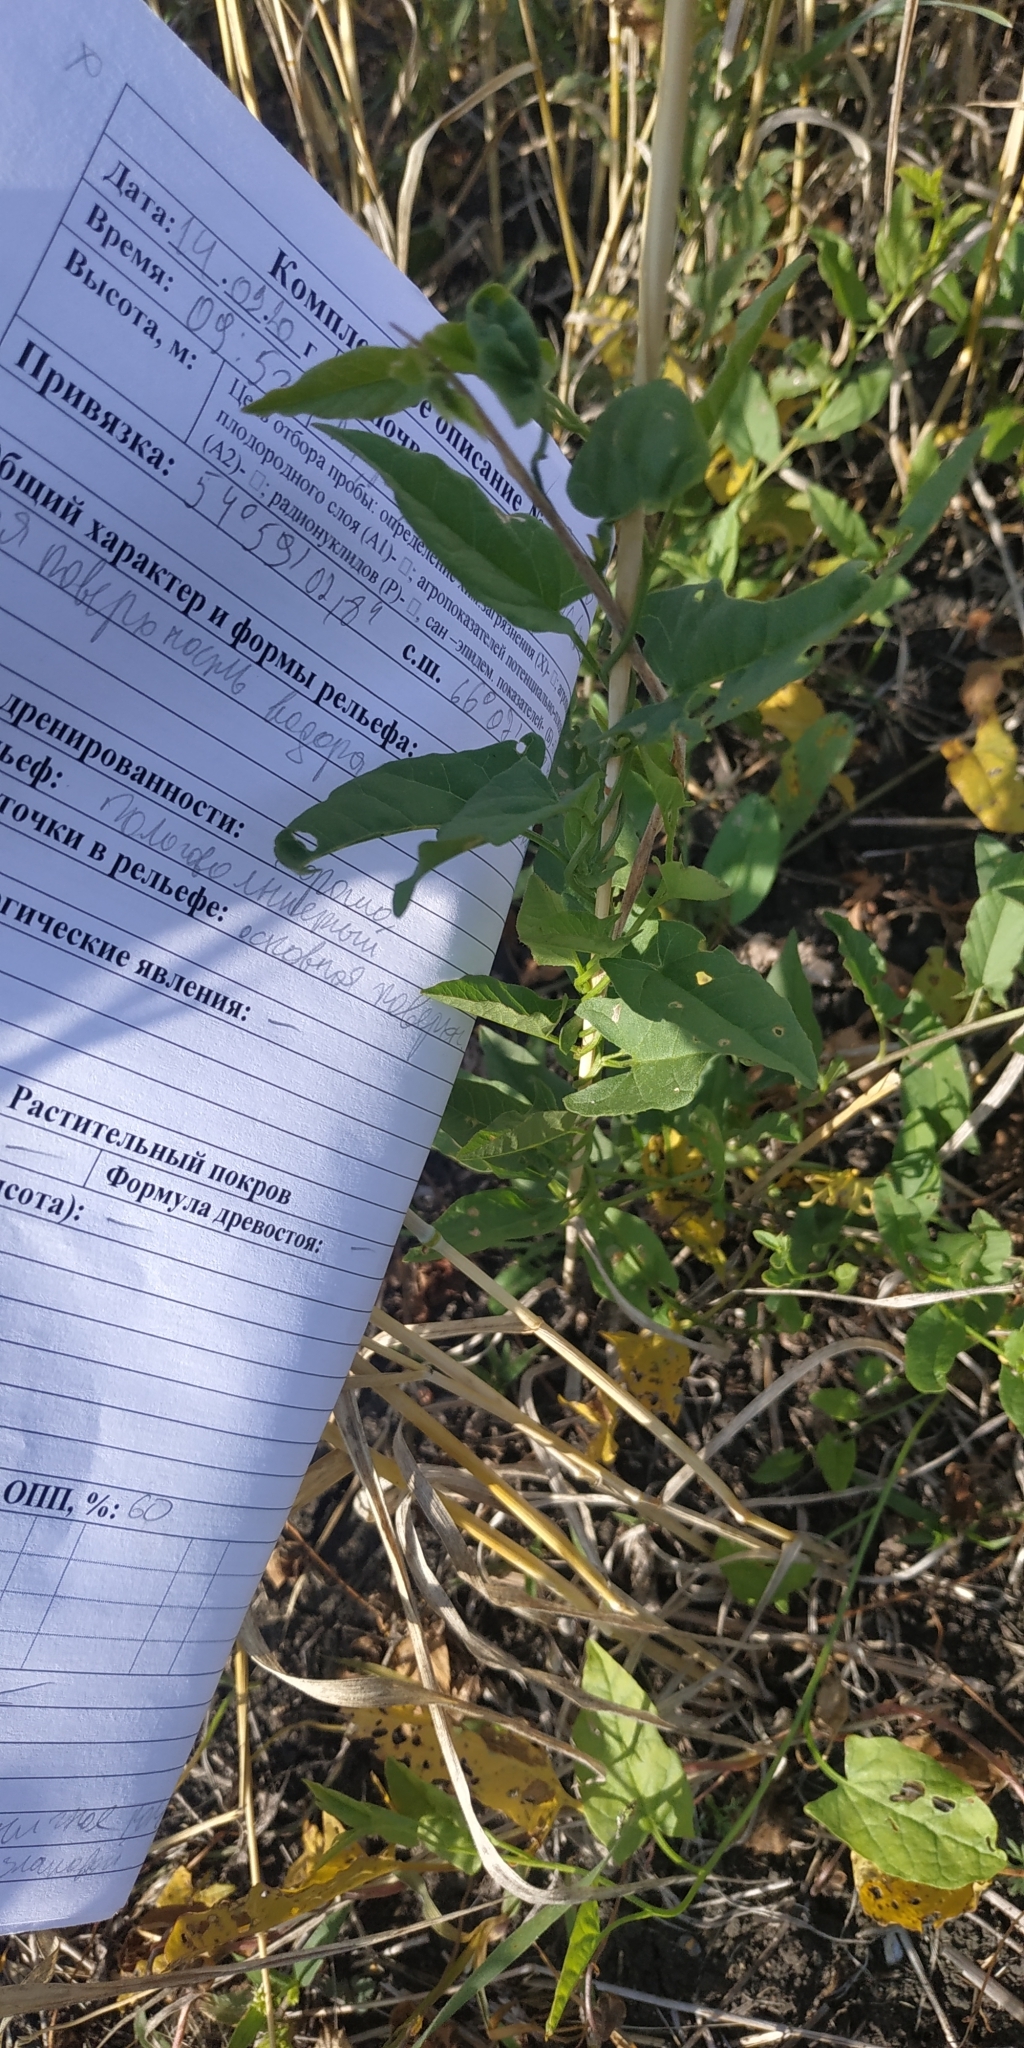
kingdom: Plantae
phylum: Tracheophyta
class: Magnoliopsida
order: Solanales
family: Convolvulaceae
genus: Convolvulus
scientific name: Convolvulus arvensis
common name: Field bindweed
